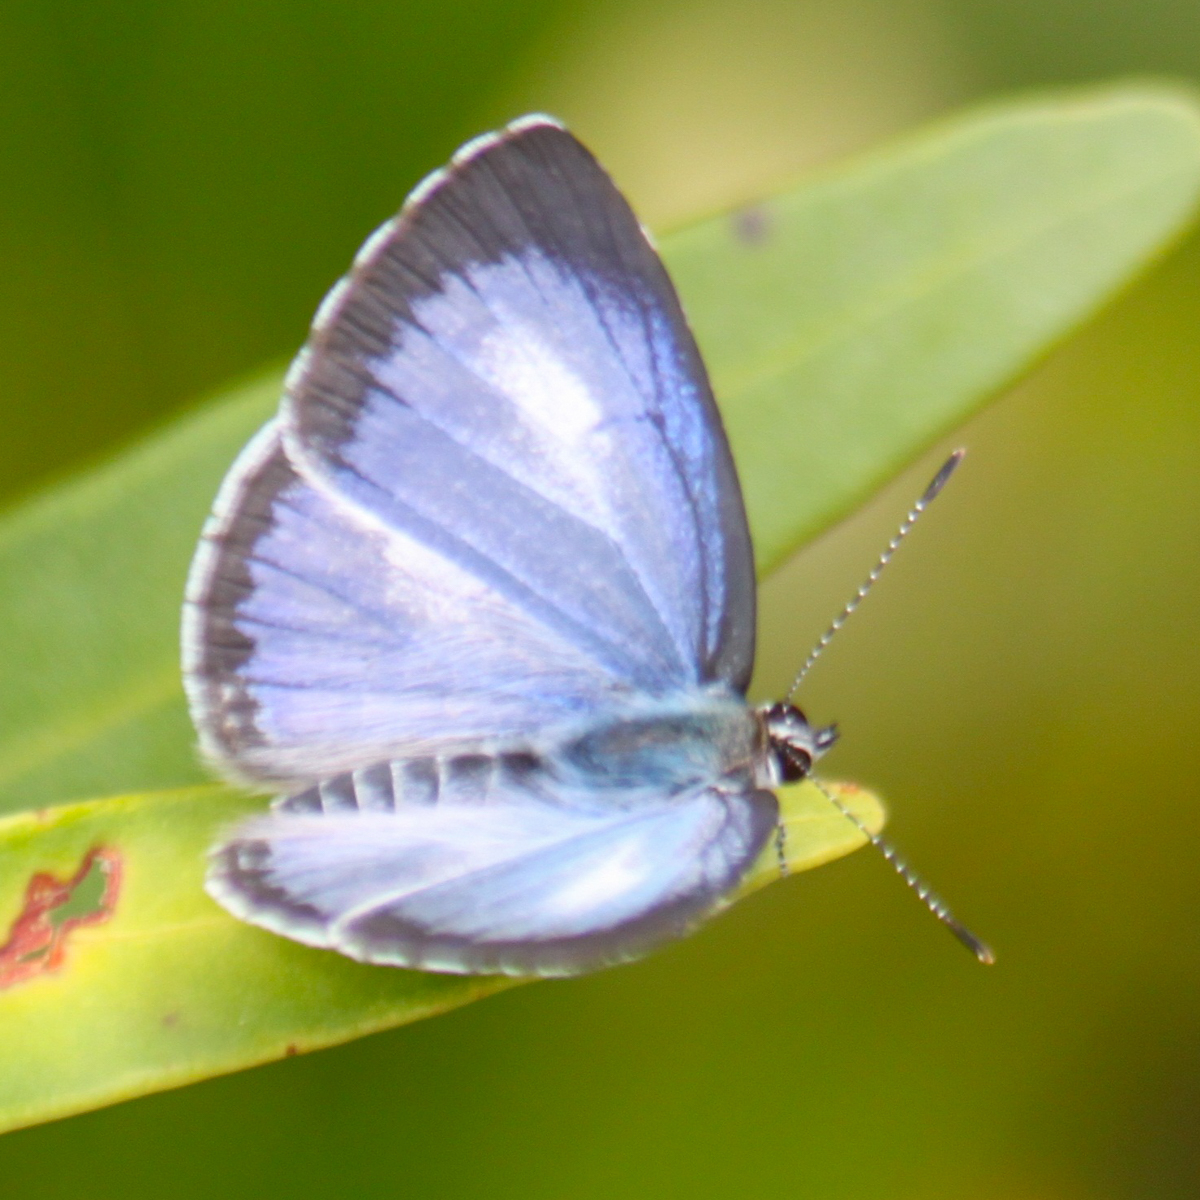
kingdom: Animalia
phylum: Arthropoda
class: Insecta
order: Lepidoptera
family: Lycaenidae
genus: Acytolepis
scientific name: Acytolepis puspa
